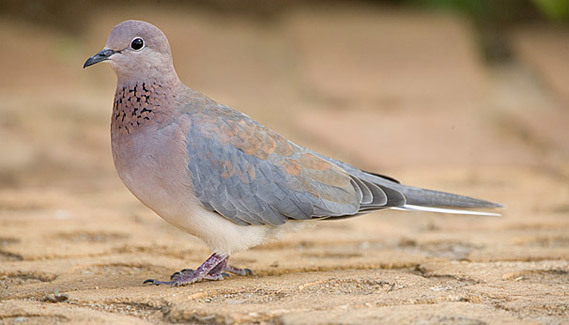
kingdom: Animalia
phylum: Chordata
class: Aves
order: Columbiformes
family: Columbidae
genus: Spilopelia
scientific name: Spilopelia senegalensis
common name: Laughing dove
